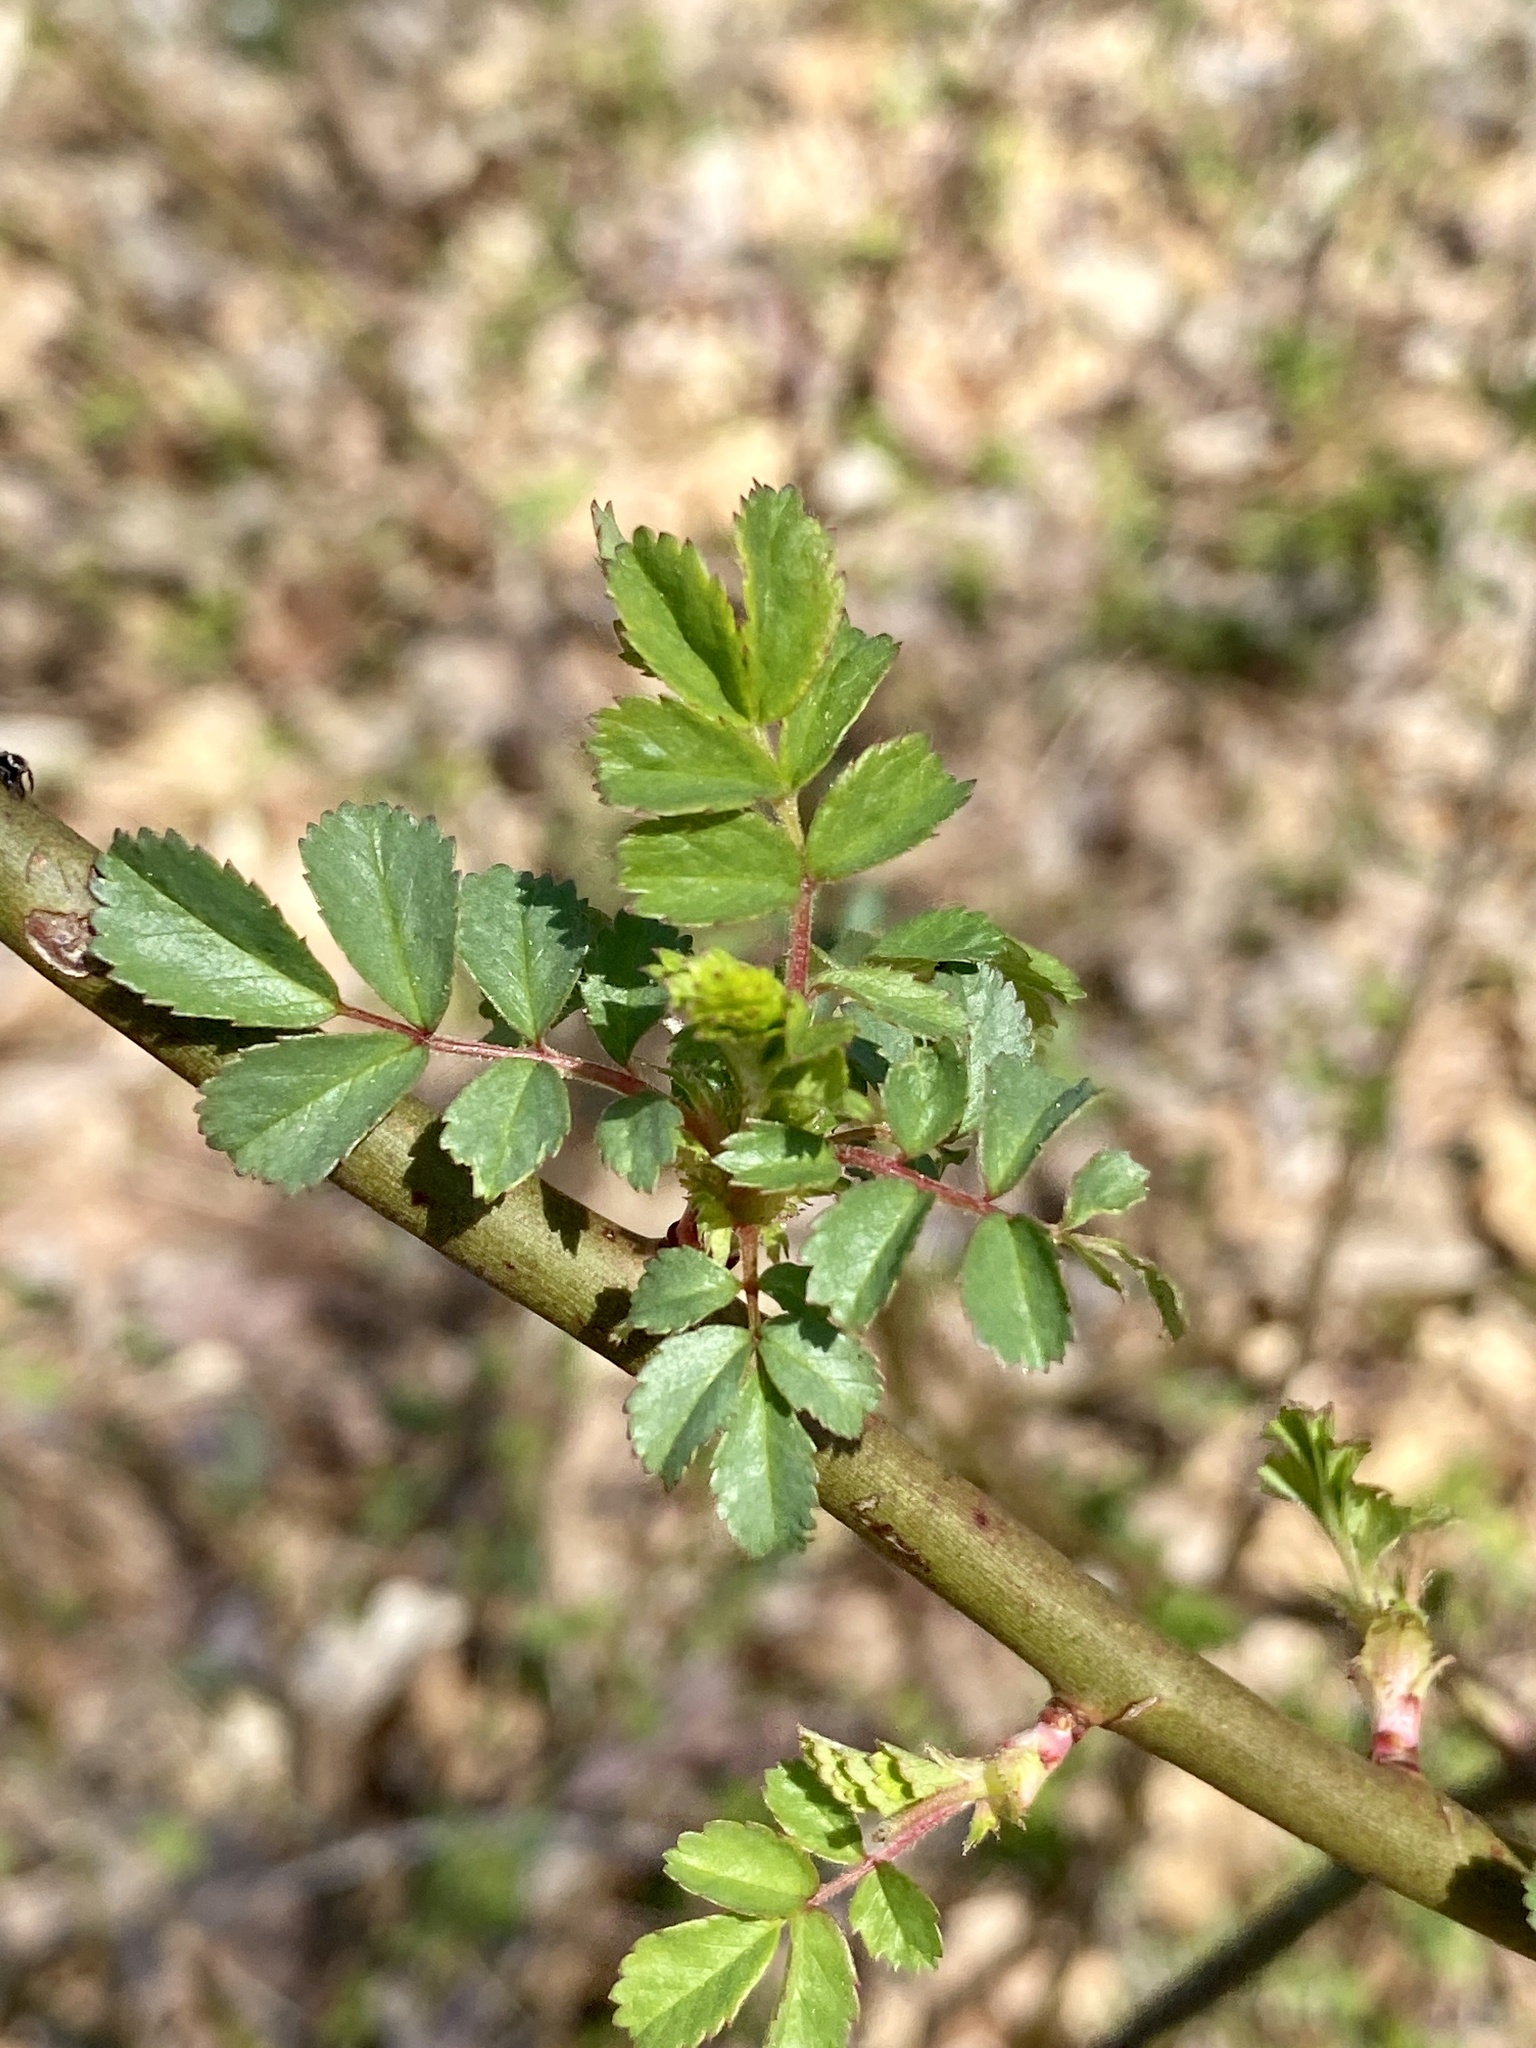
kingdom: Plantae
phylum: Tracheophyta
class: Magnoliopsida
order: Rosales
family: Rosaceae
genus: Rosa
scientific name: Rosa multiflora
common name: Multiflora rose
